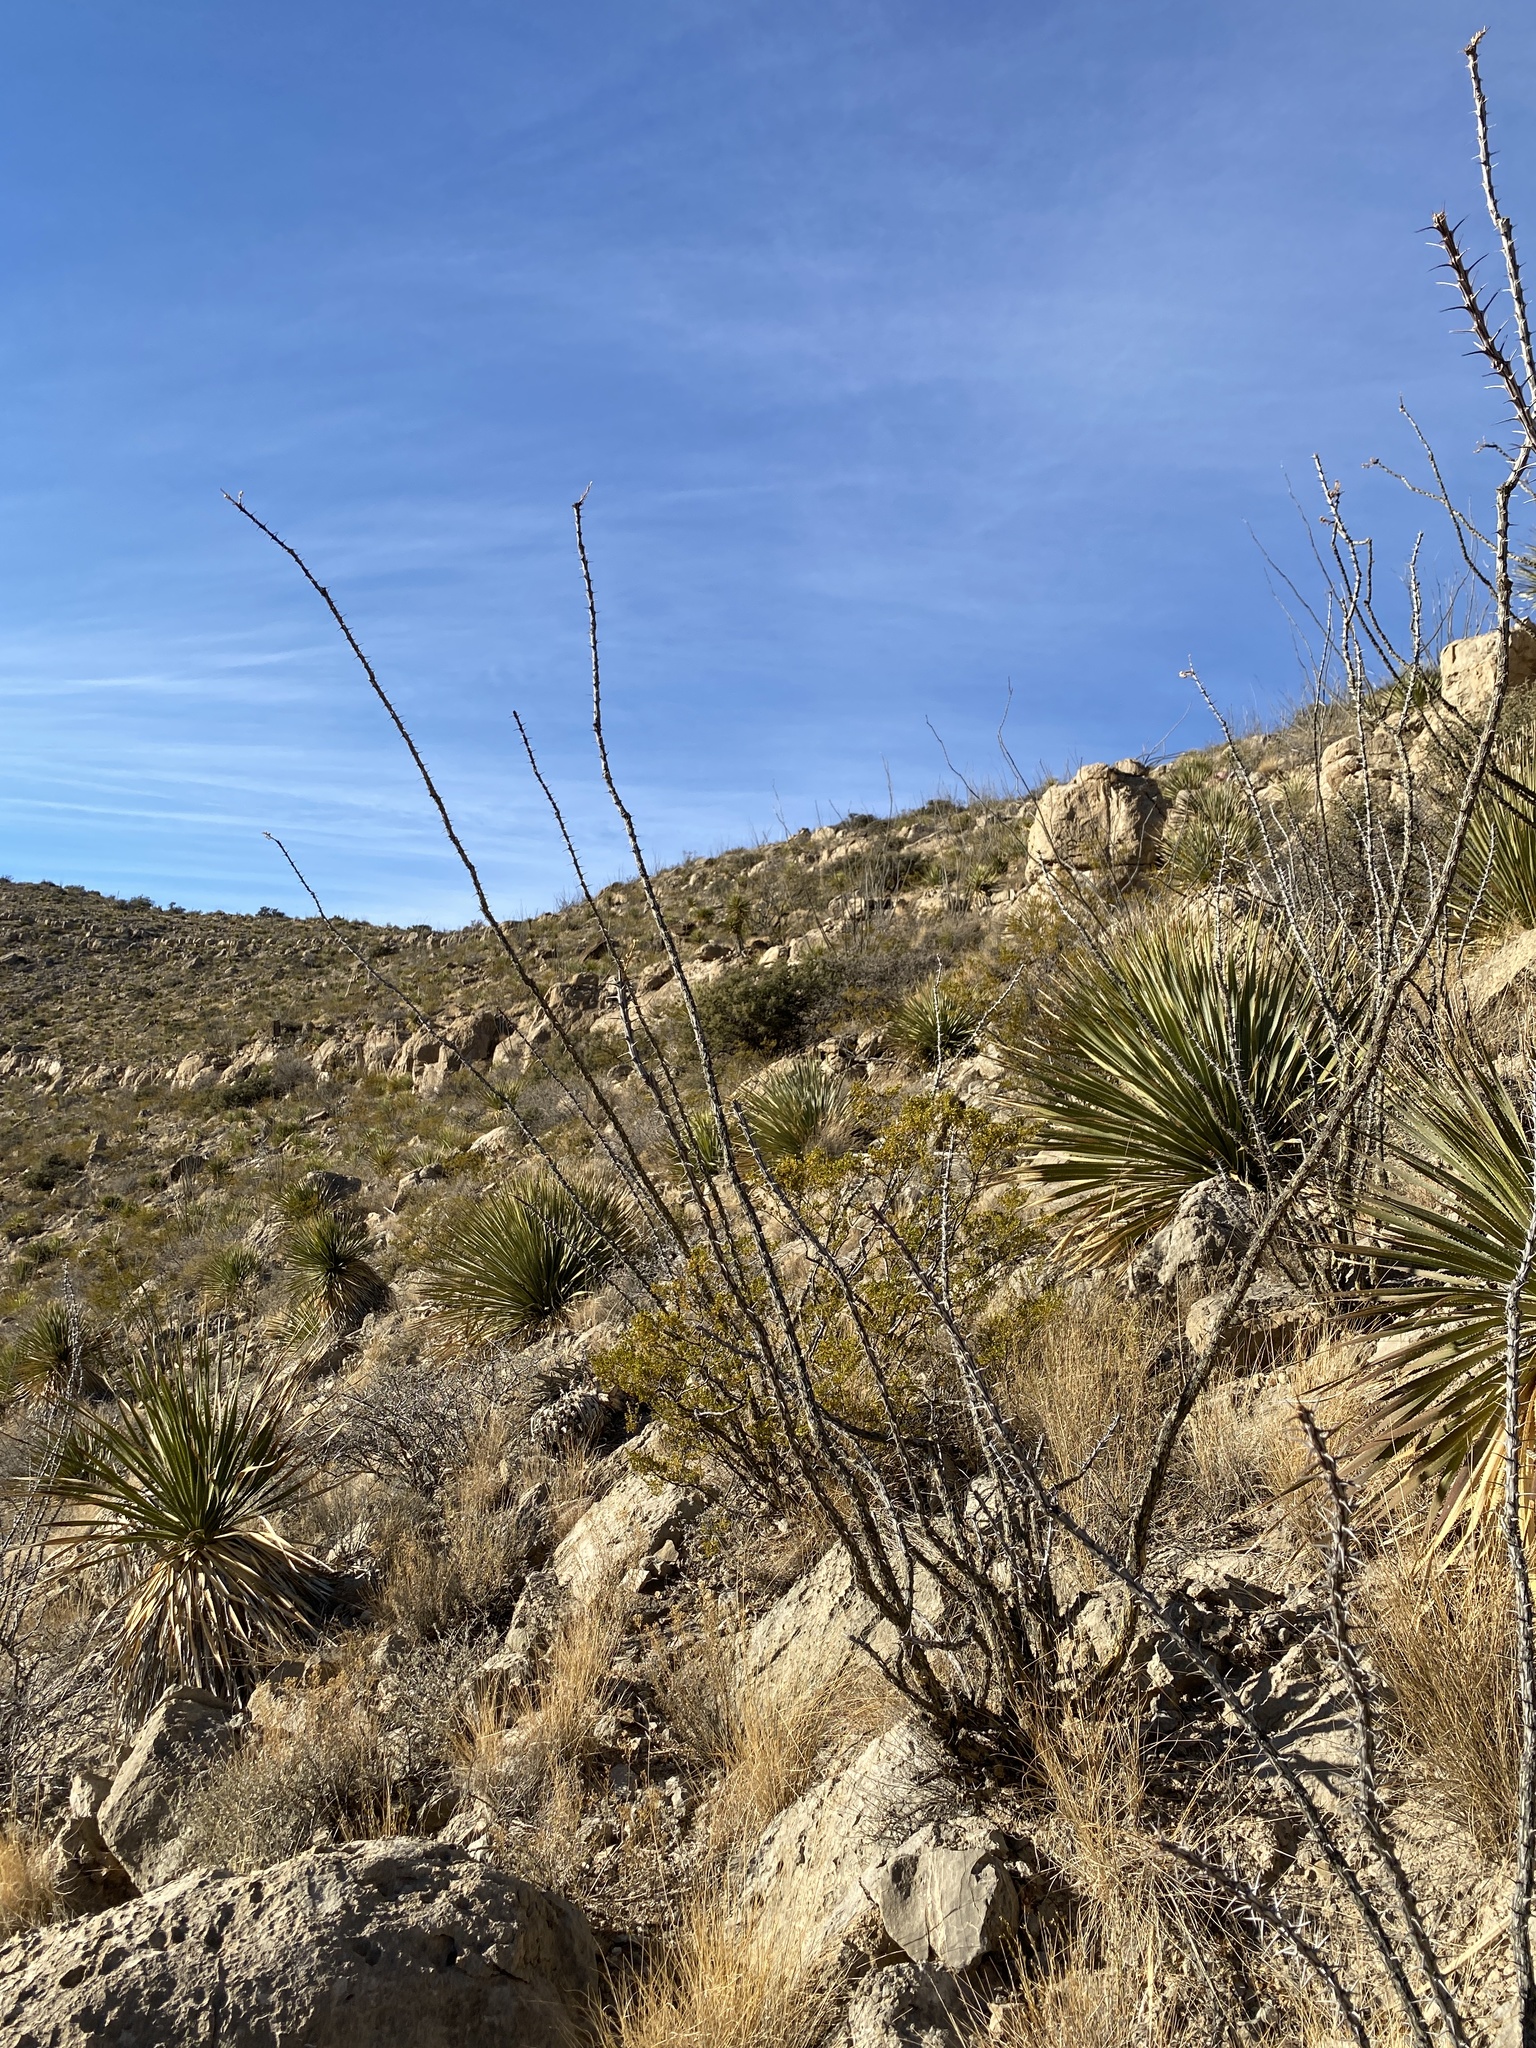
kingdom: Plantae
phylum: Tracheophyta
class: Magnoliopsida
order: Ericales
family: Fouquieriaceae
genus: Fouquieria
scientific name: Fouquieria splendens
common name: Vine-cactus
